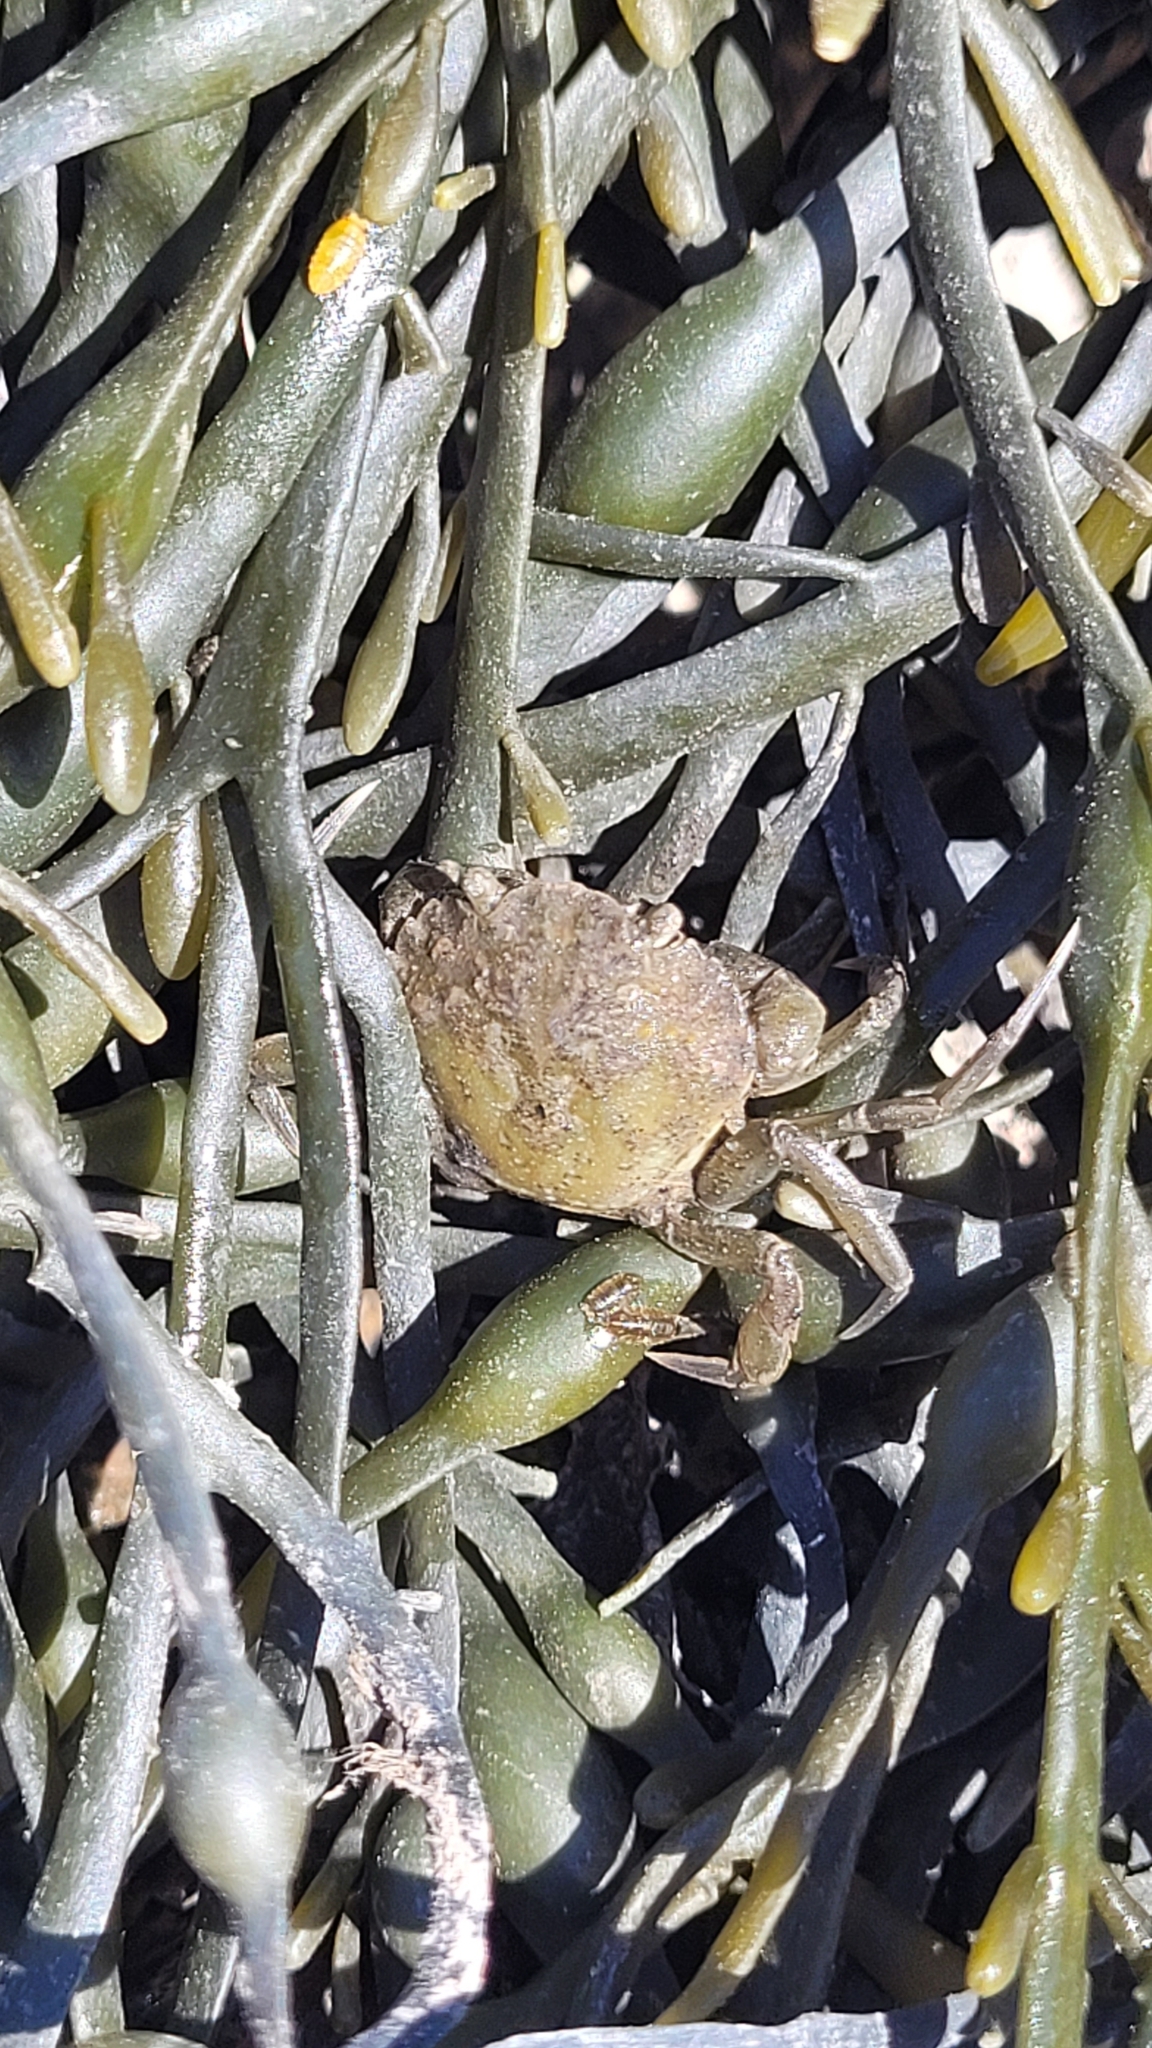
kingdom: Animalia
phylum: Arthropoda
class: Malacostraca
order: Decapoda
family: Carcinidae
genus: Carcinus
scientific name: Carcinus maenas
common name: European green crab
